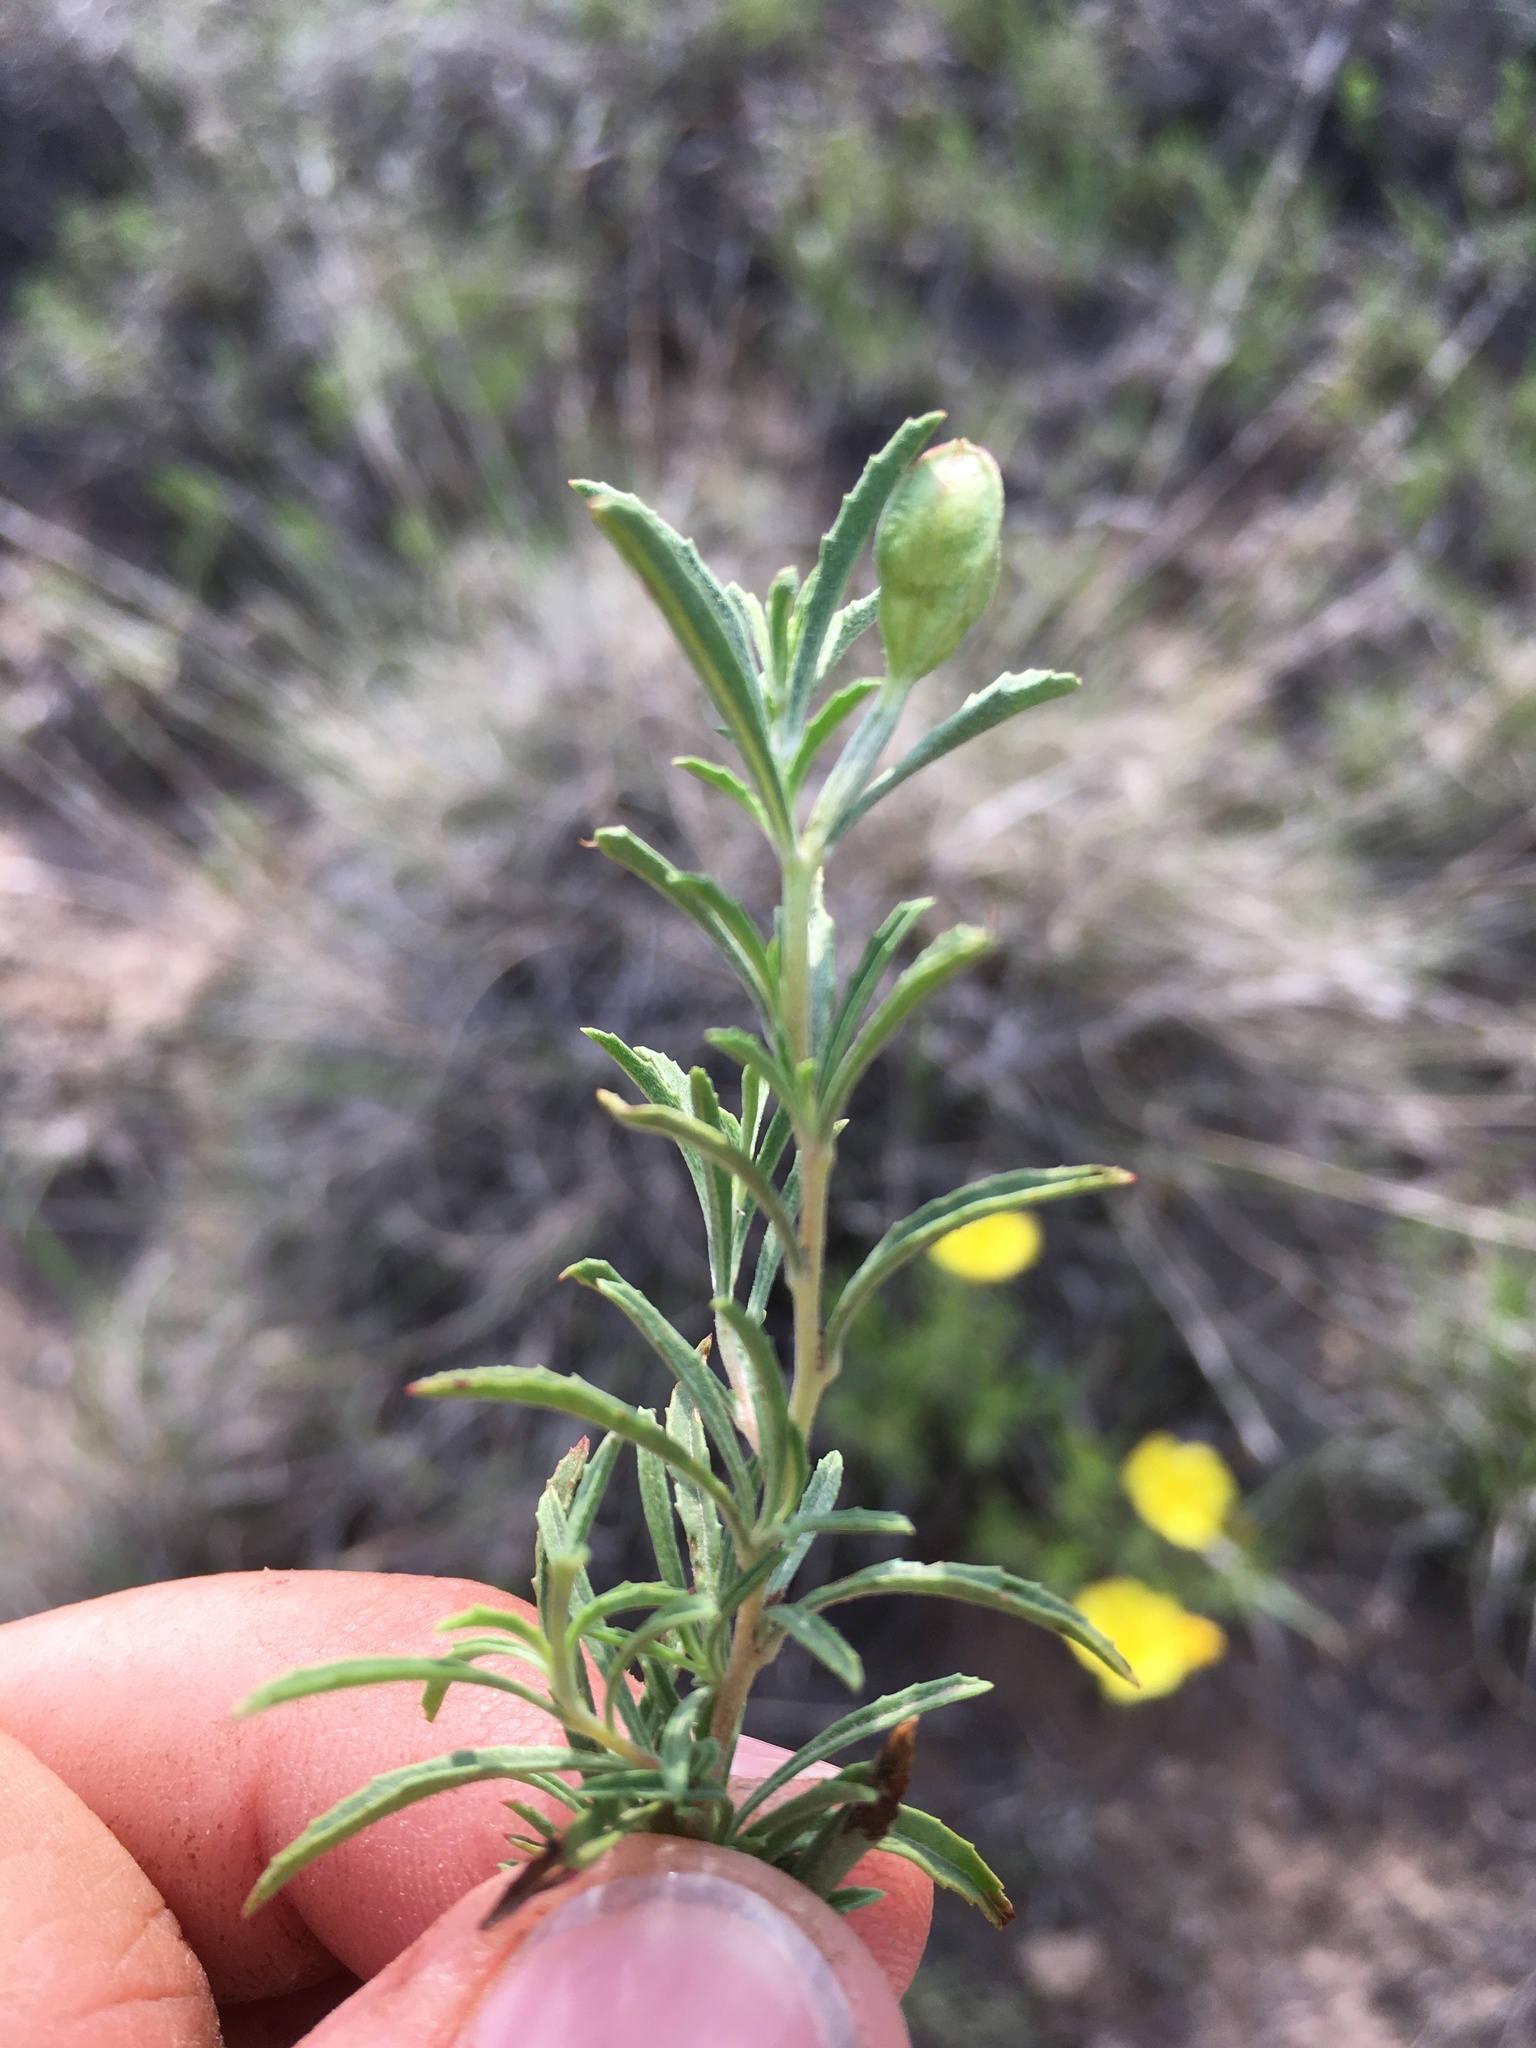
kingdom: Plantae
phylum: Tracheophyta
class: Magnoliopsida
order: Myrtales
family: Onagraceae
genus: Oenothera
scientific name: Oenothera
